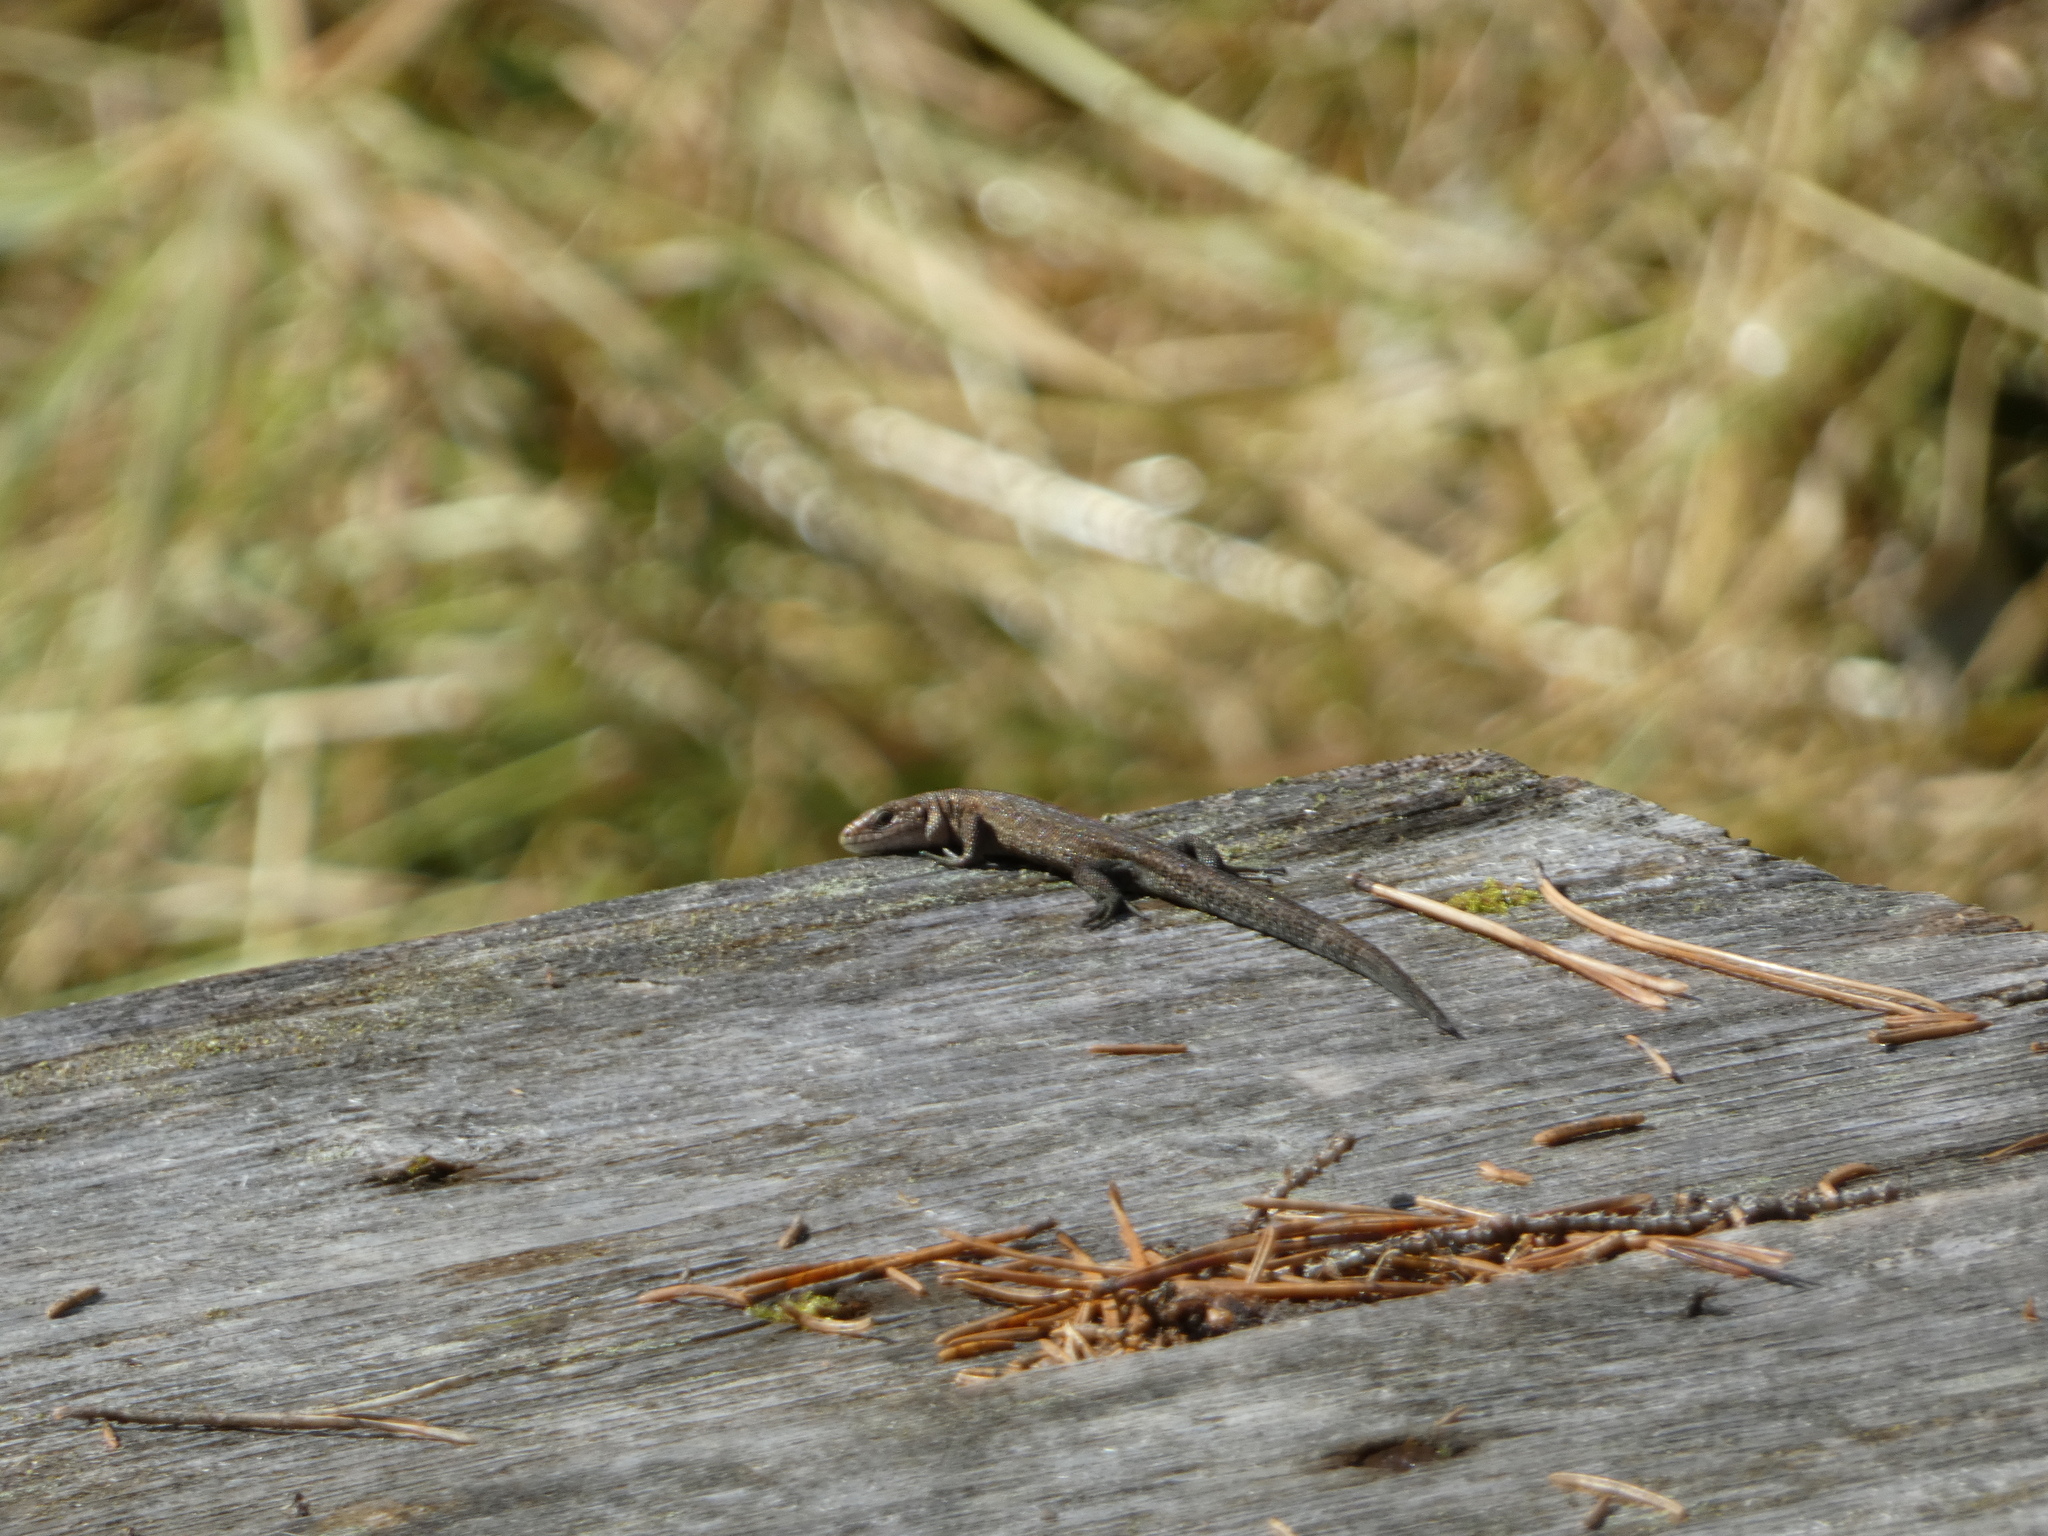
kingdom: Animalia
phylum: Chordata
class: Squamata
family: Lacertidae
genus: Zootoca
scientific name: Zootoca vivipara
